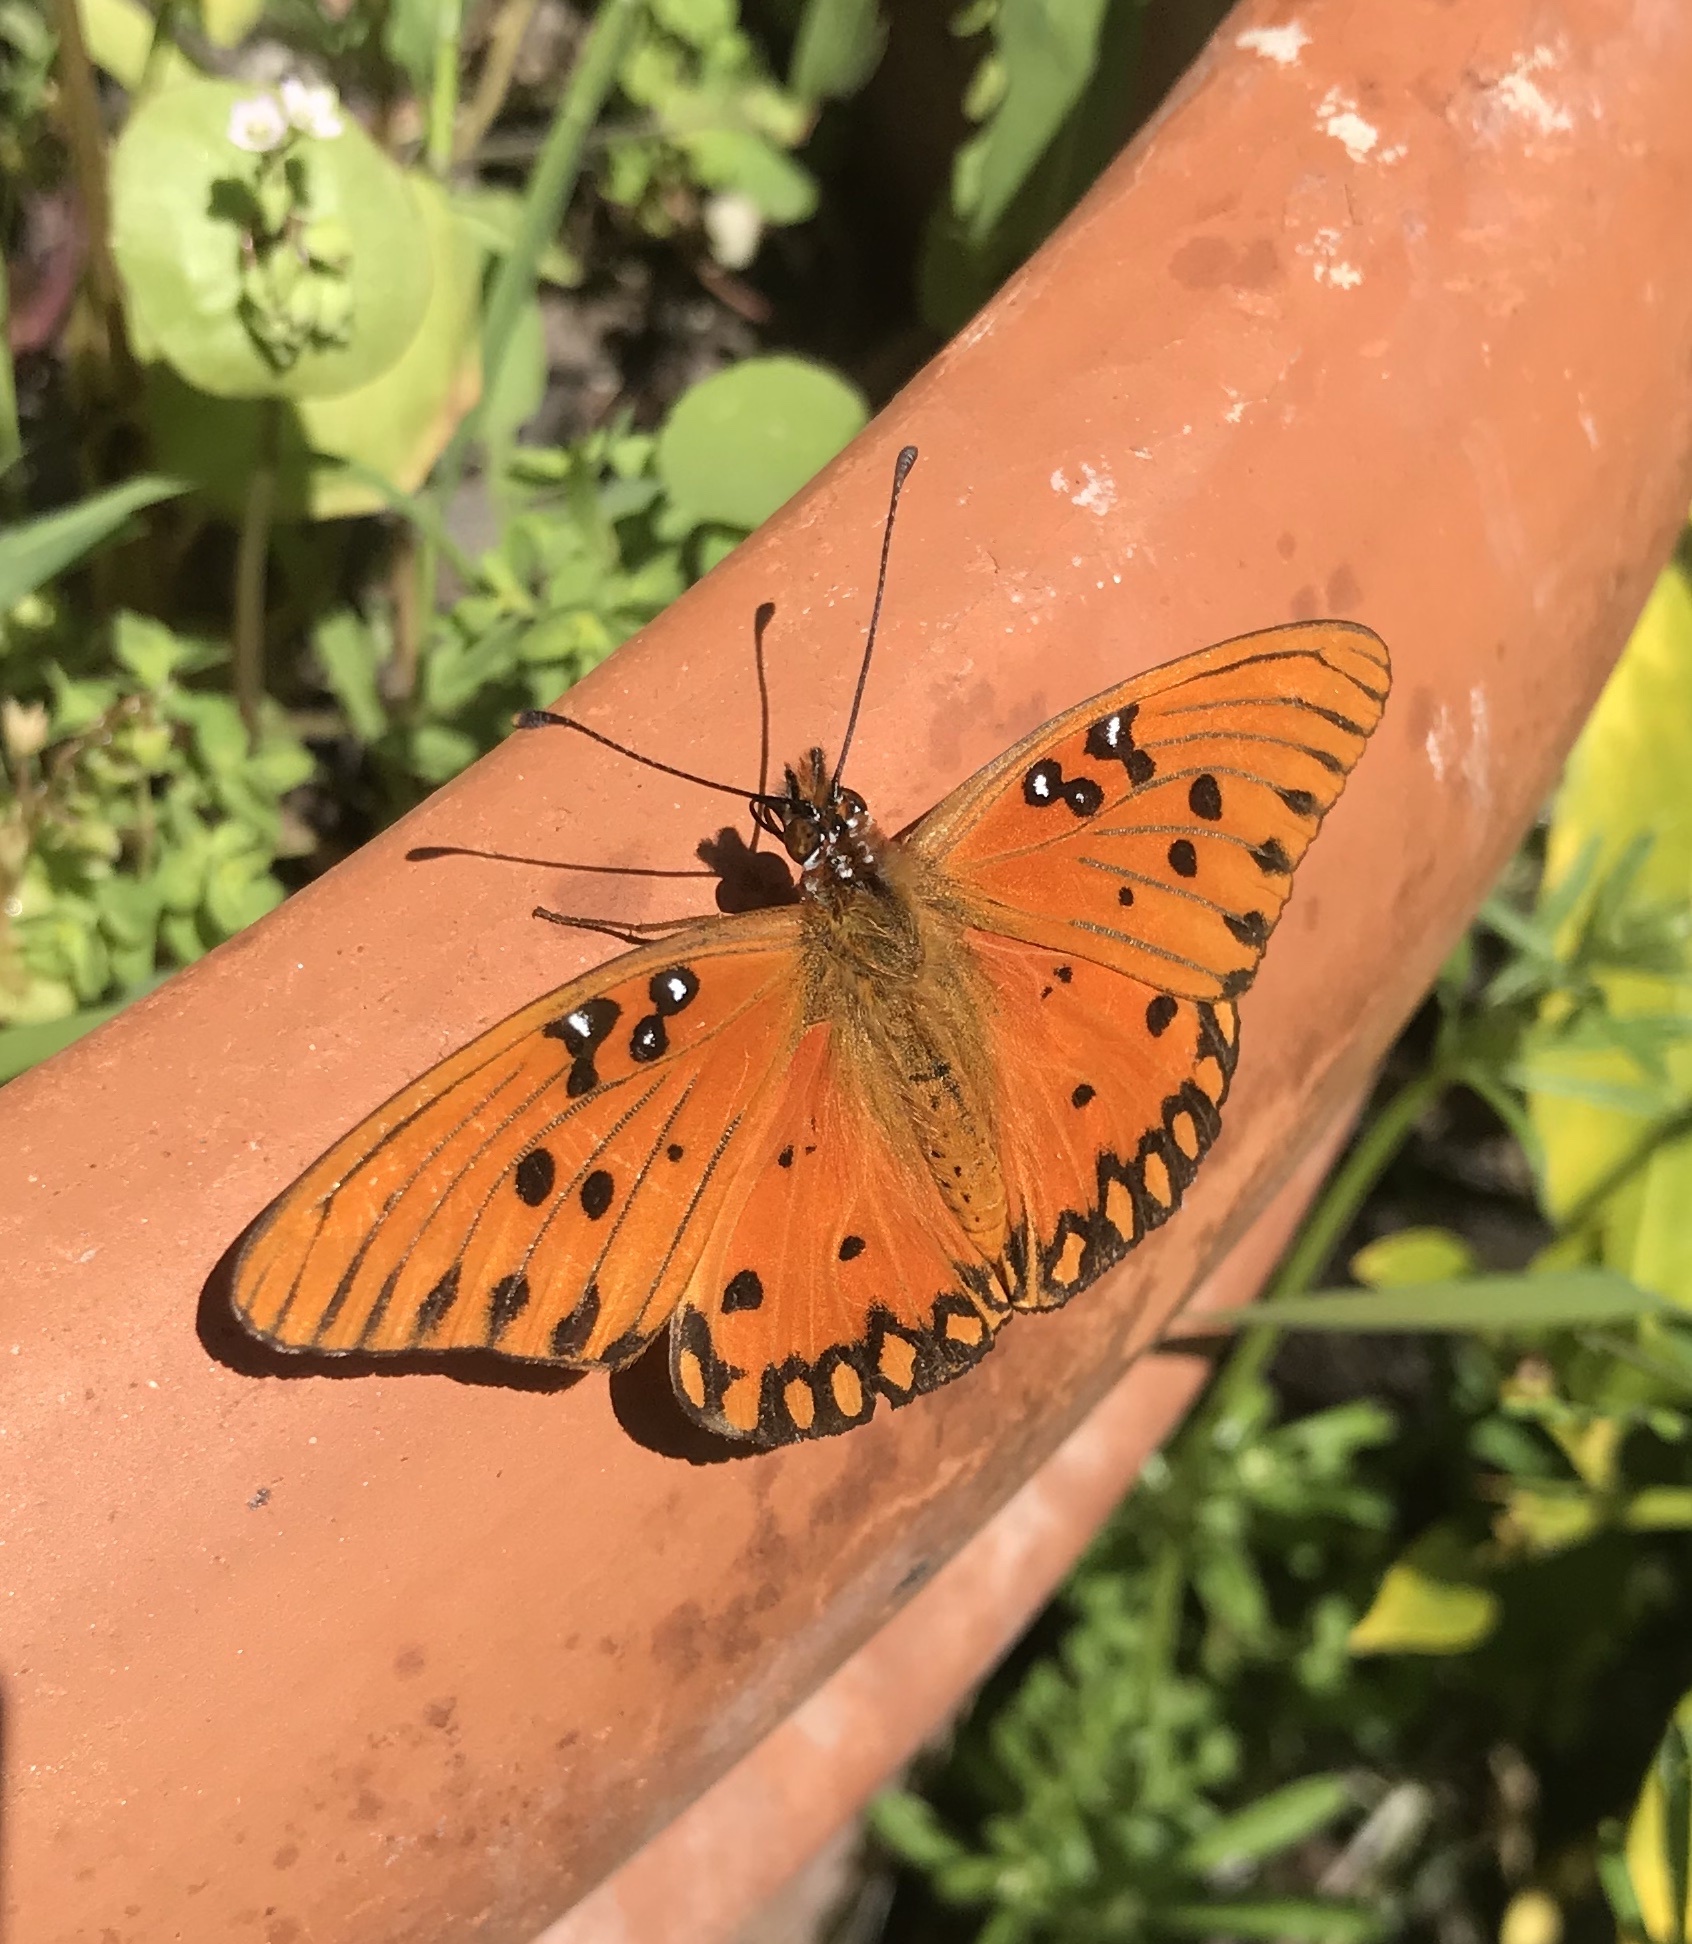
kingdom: Animalia
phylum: Arthropoda
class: Insecta
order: Lepidoptera
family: Nymphalidae
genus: Dione
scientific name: Dione vanillae
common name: Gulf fritillary
